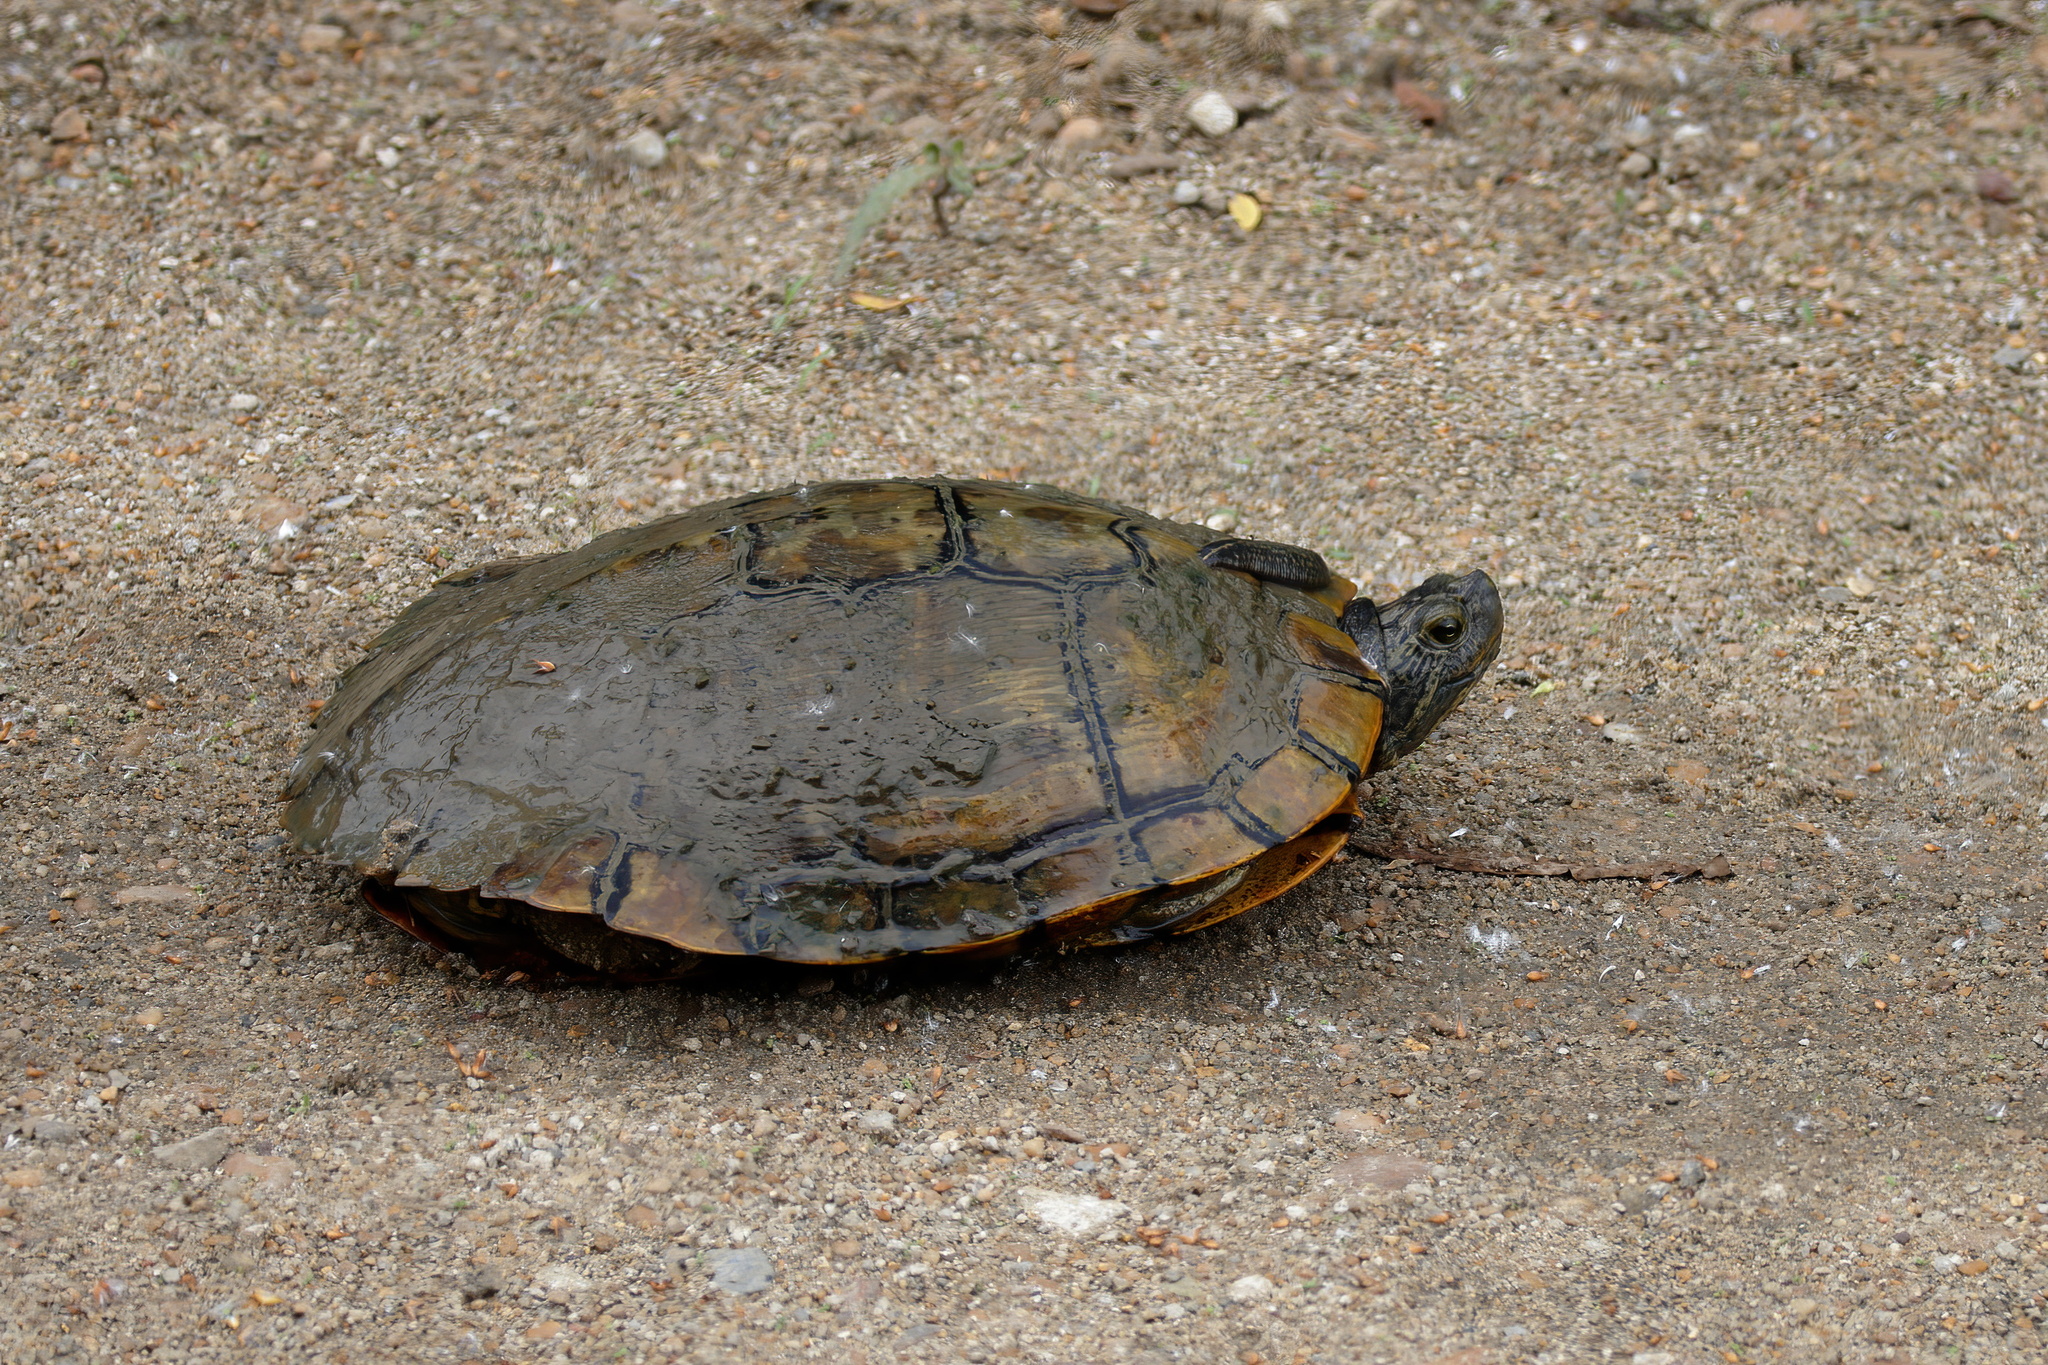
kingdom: Animalia
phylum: Chordata
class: Testudines
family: Emydidae
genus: Trachemys
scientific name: Trachemys scripta
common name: Slider
